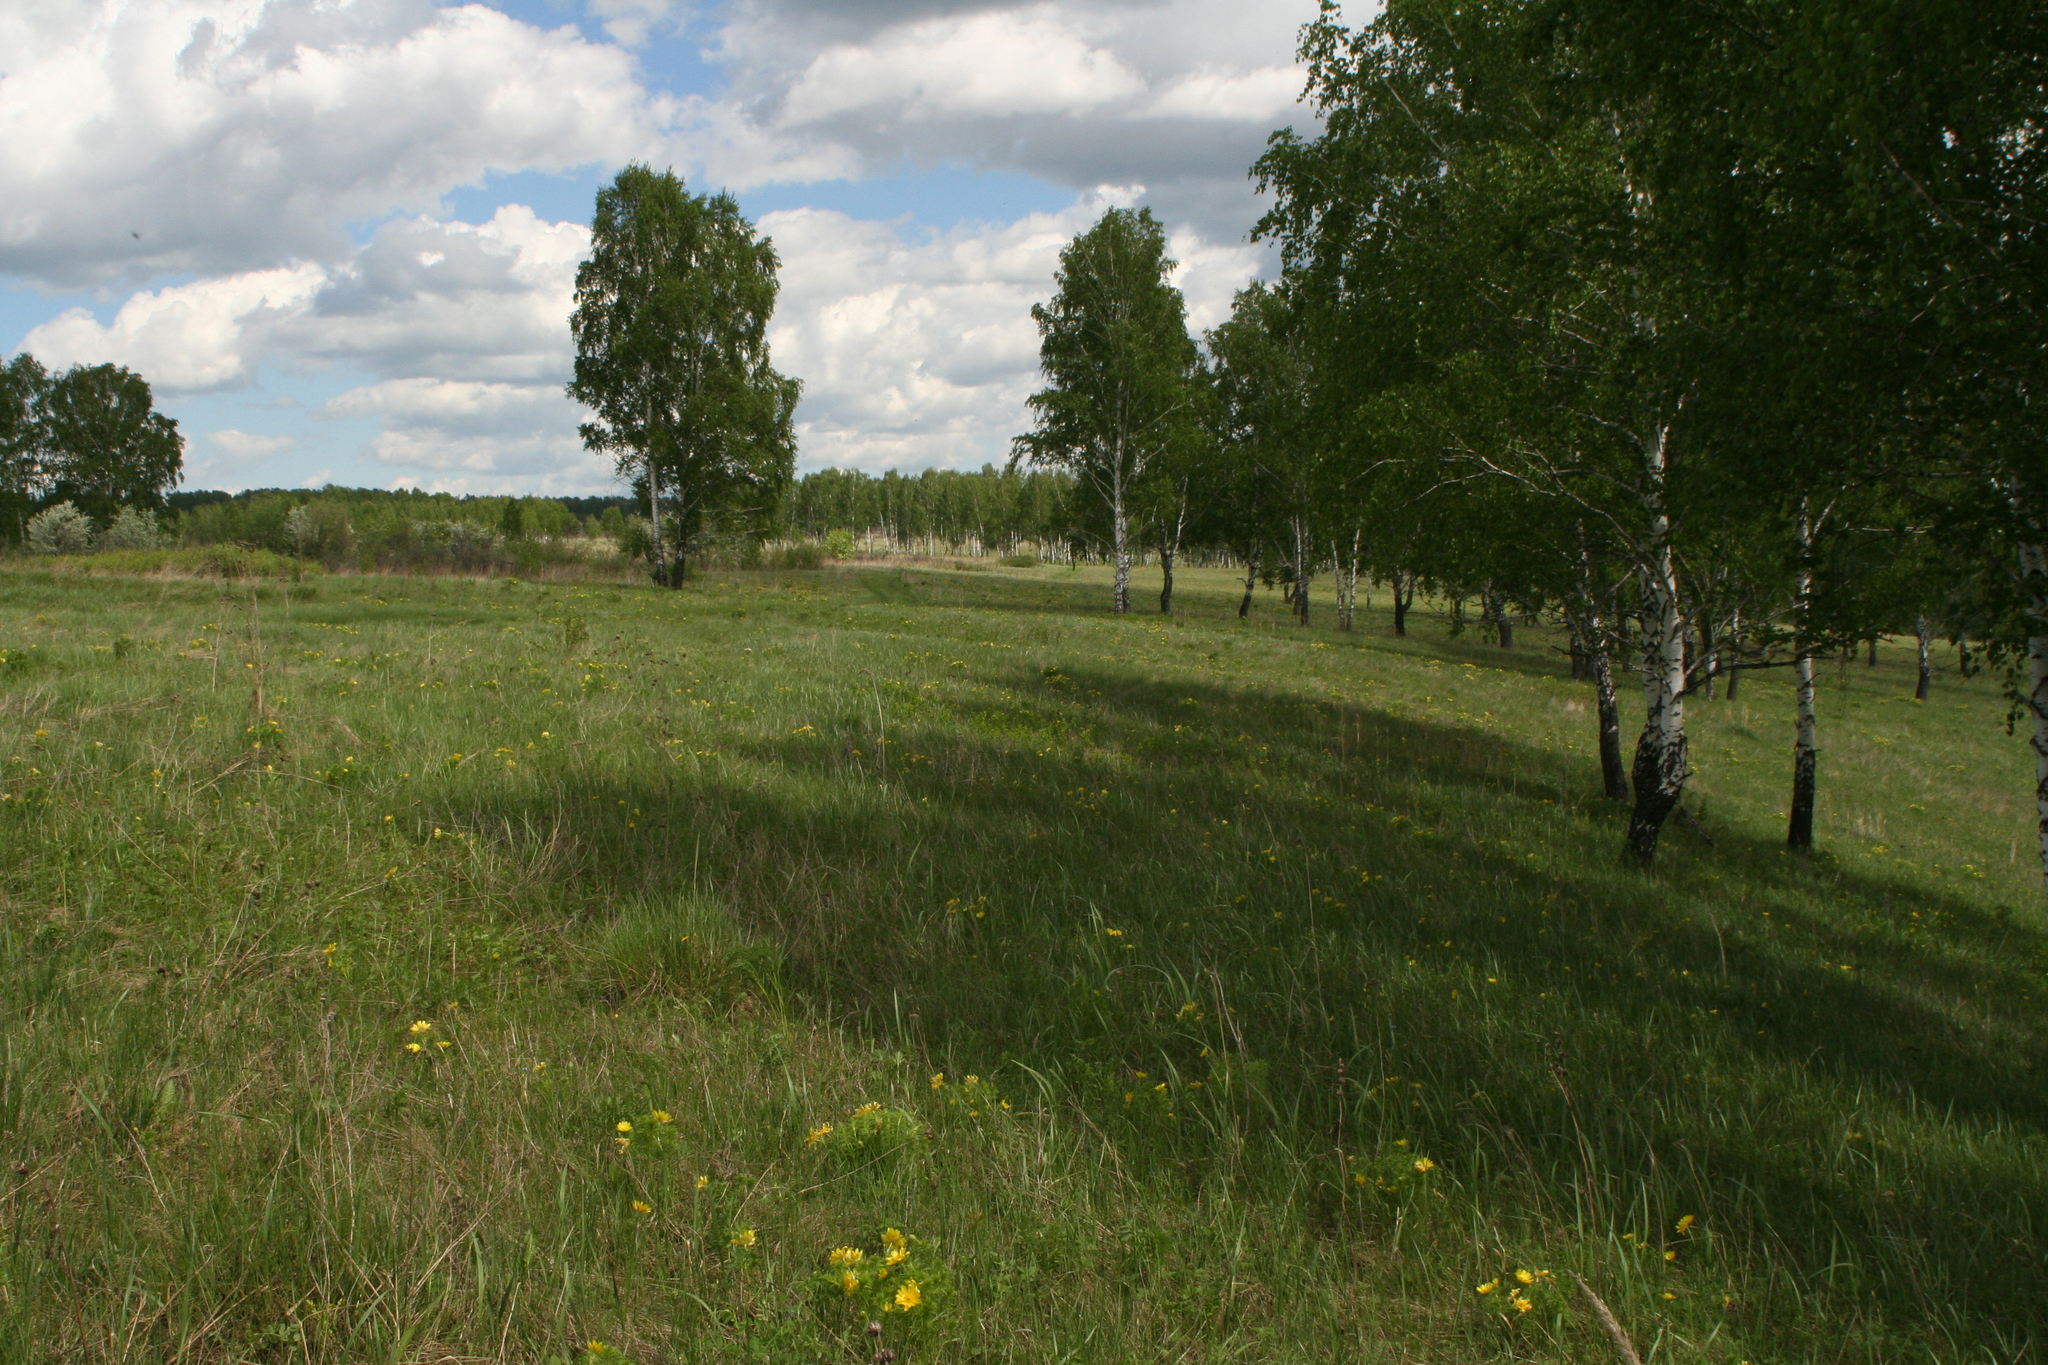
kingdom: Plantae
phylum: Tracheophyta
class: Magnoliopsida
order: Fagales
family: Betulaceae
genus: Betula
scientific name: Betula pendula
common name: Silver birch
